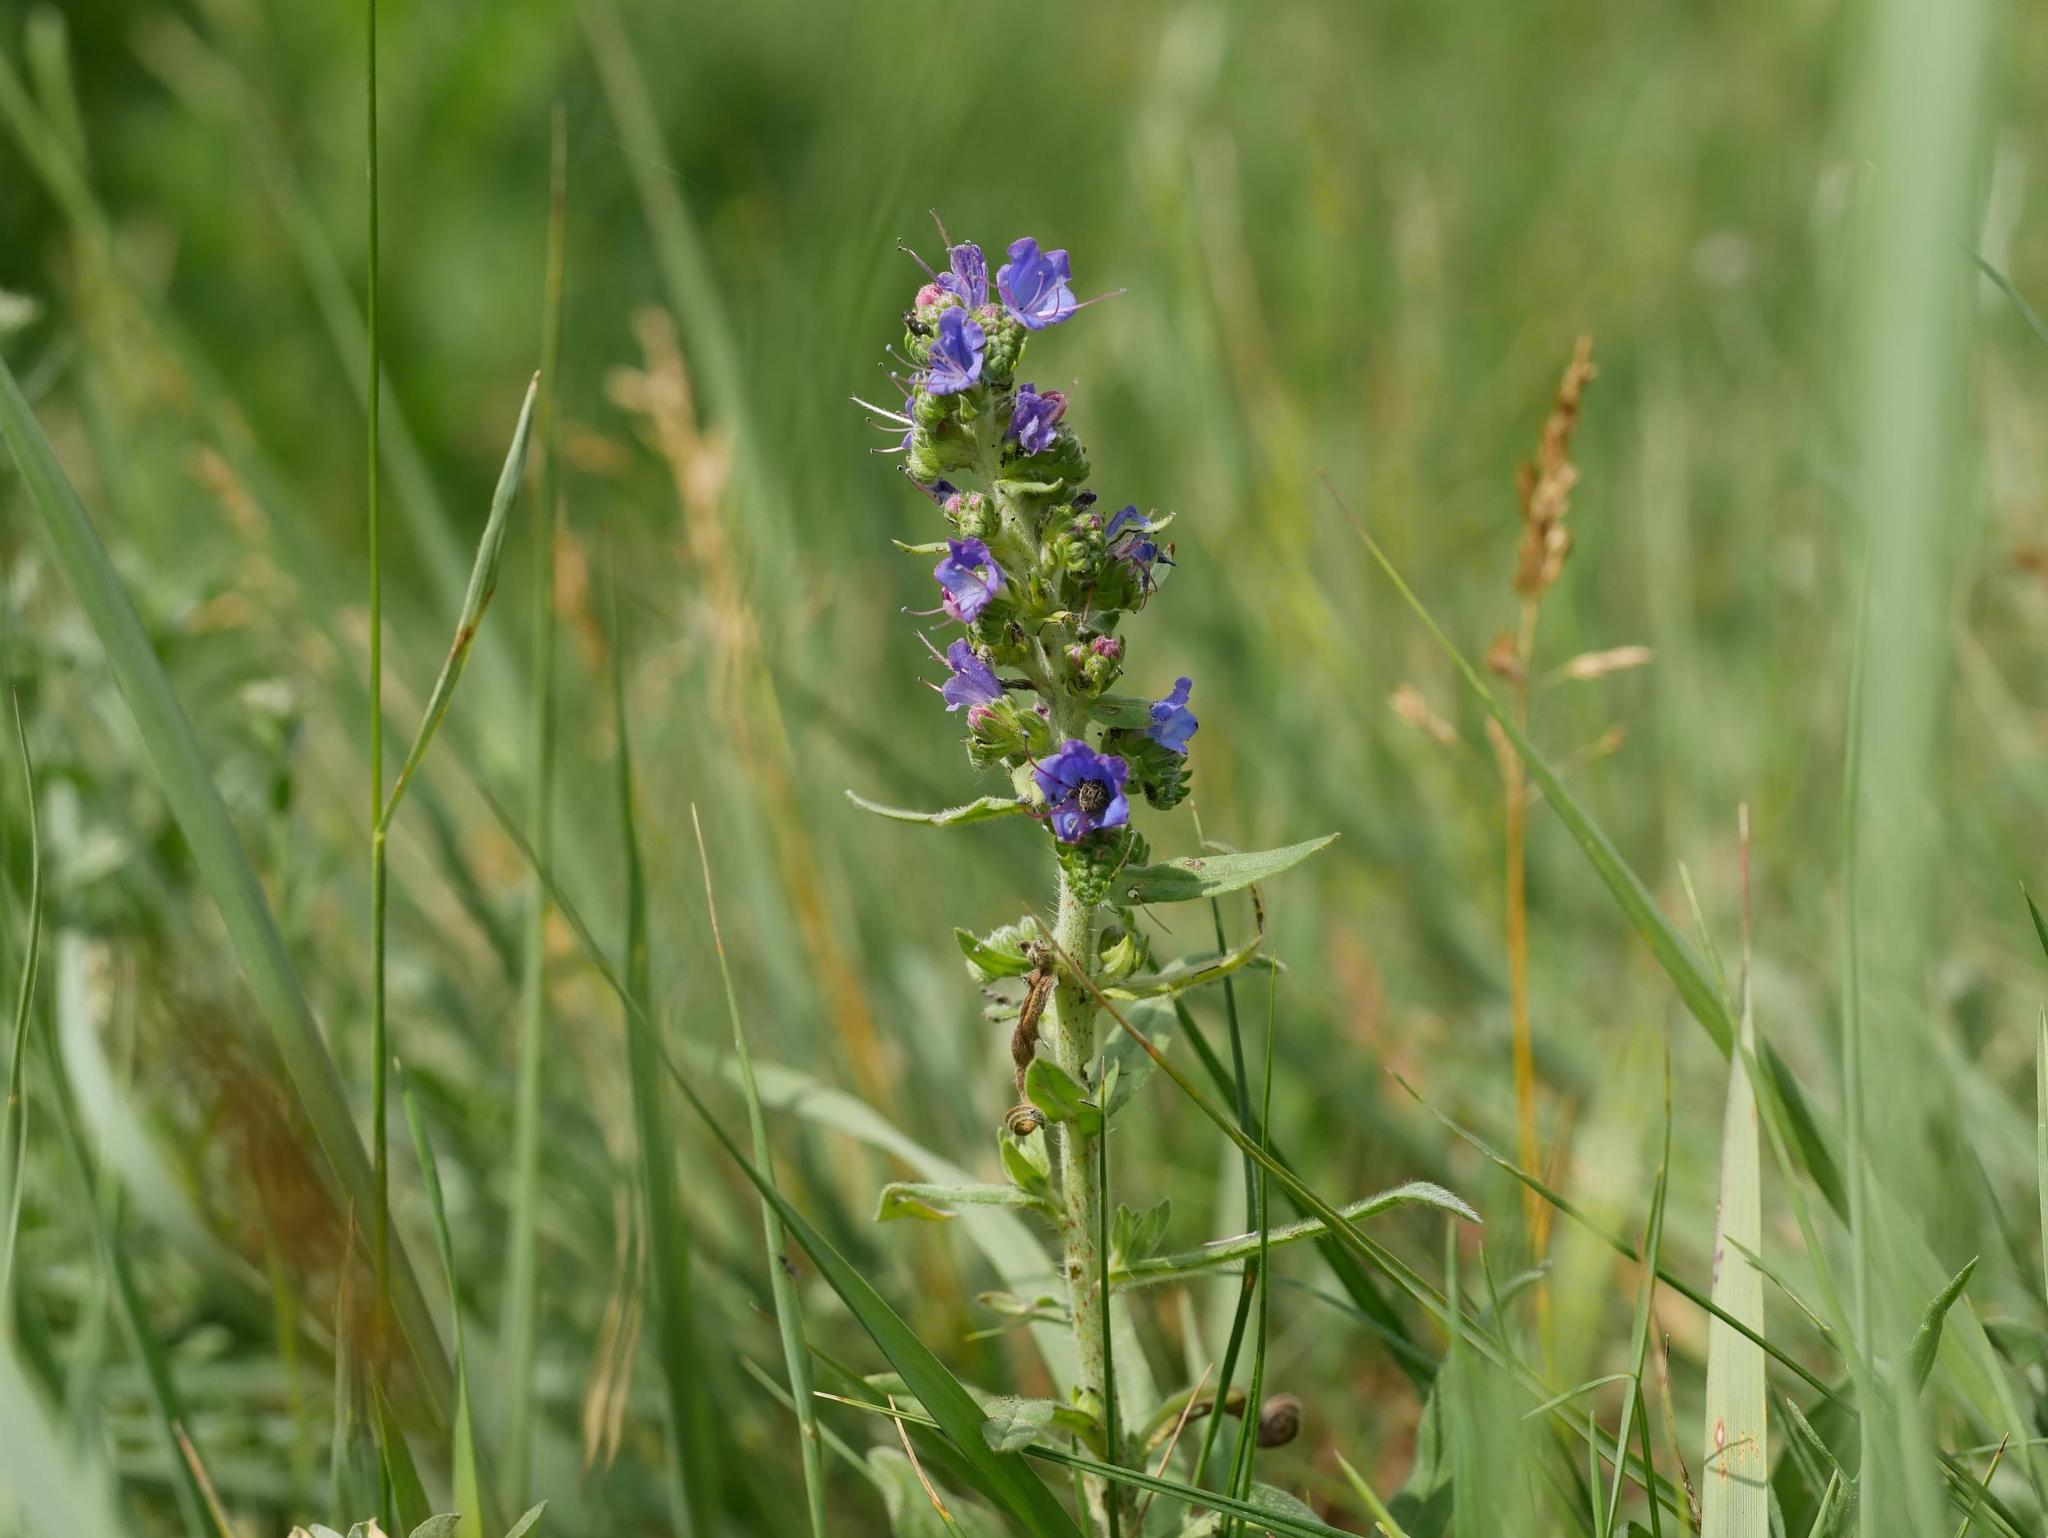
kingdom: Plantae
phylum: Tracheophyta
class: Magnoliopsida
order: Boraginales
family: Boraginaceae
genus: Echium
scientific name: Echium vulgare
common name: Common viper's bugloss
